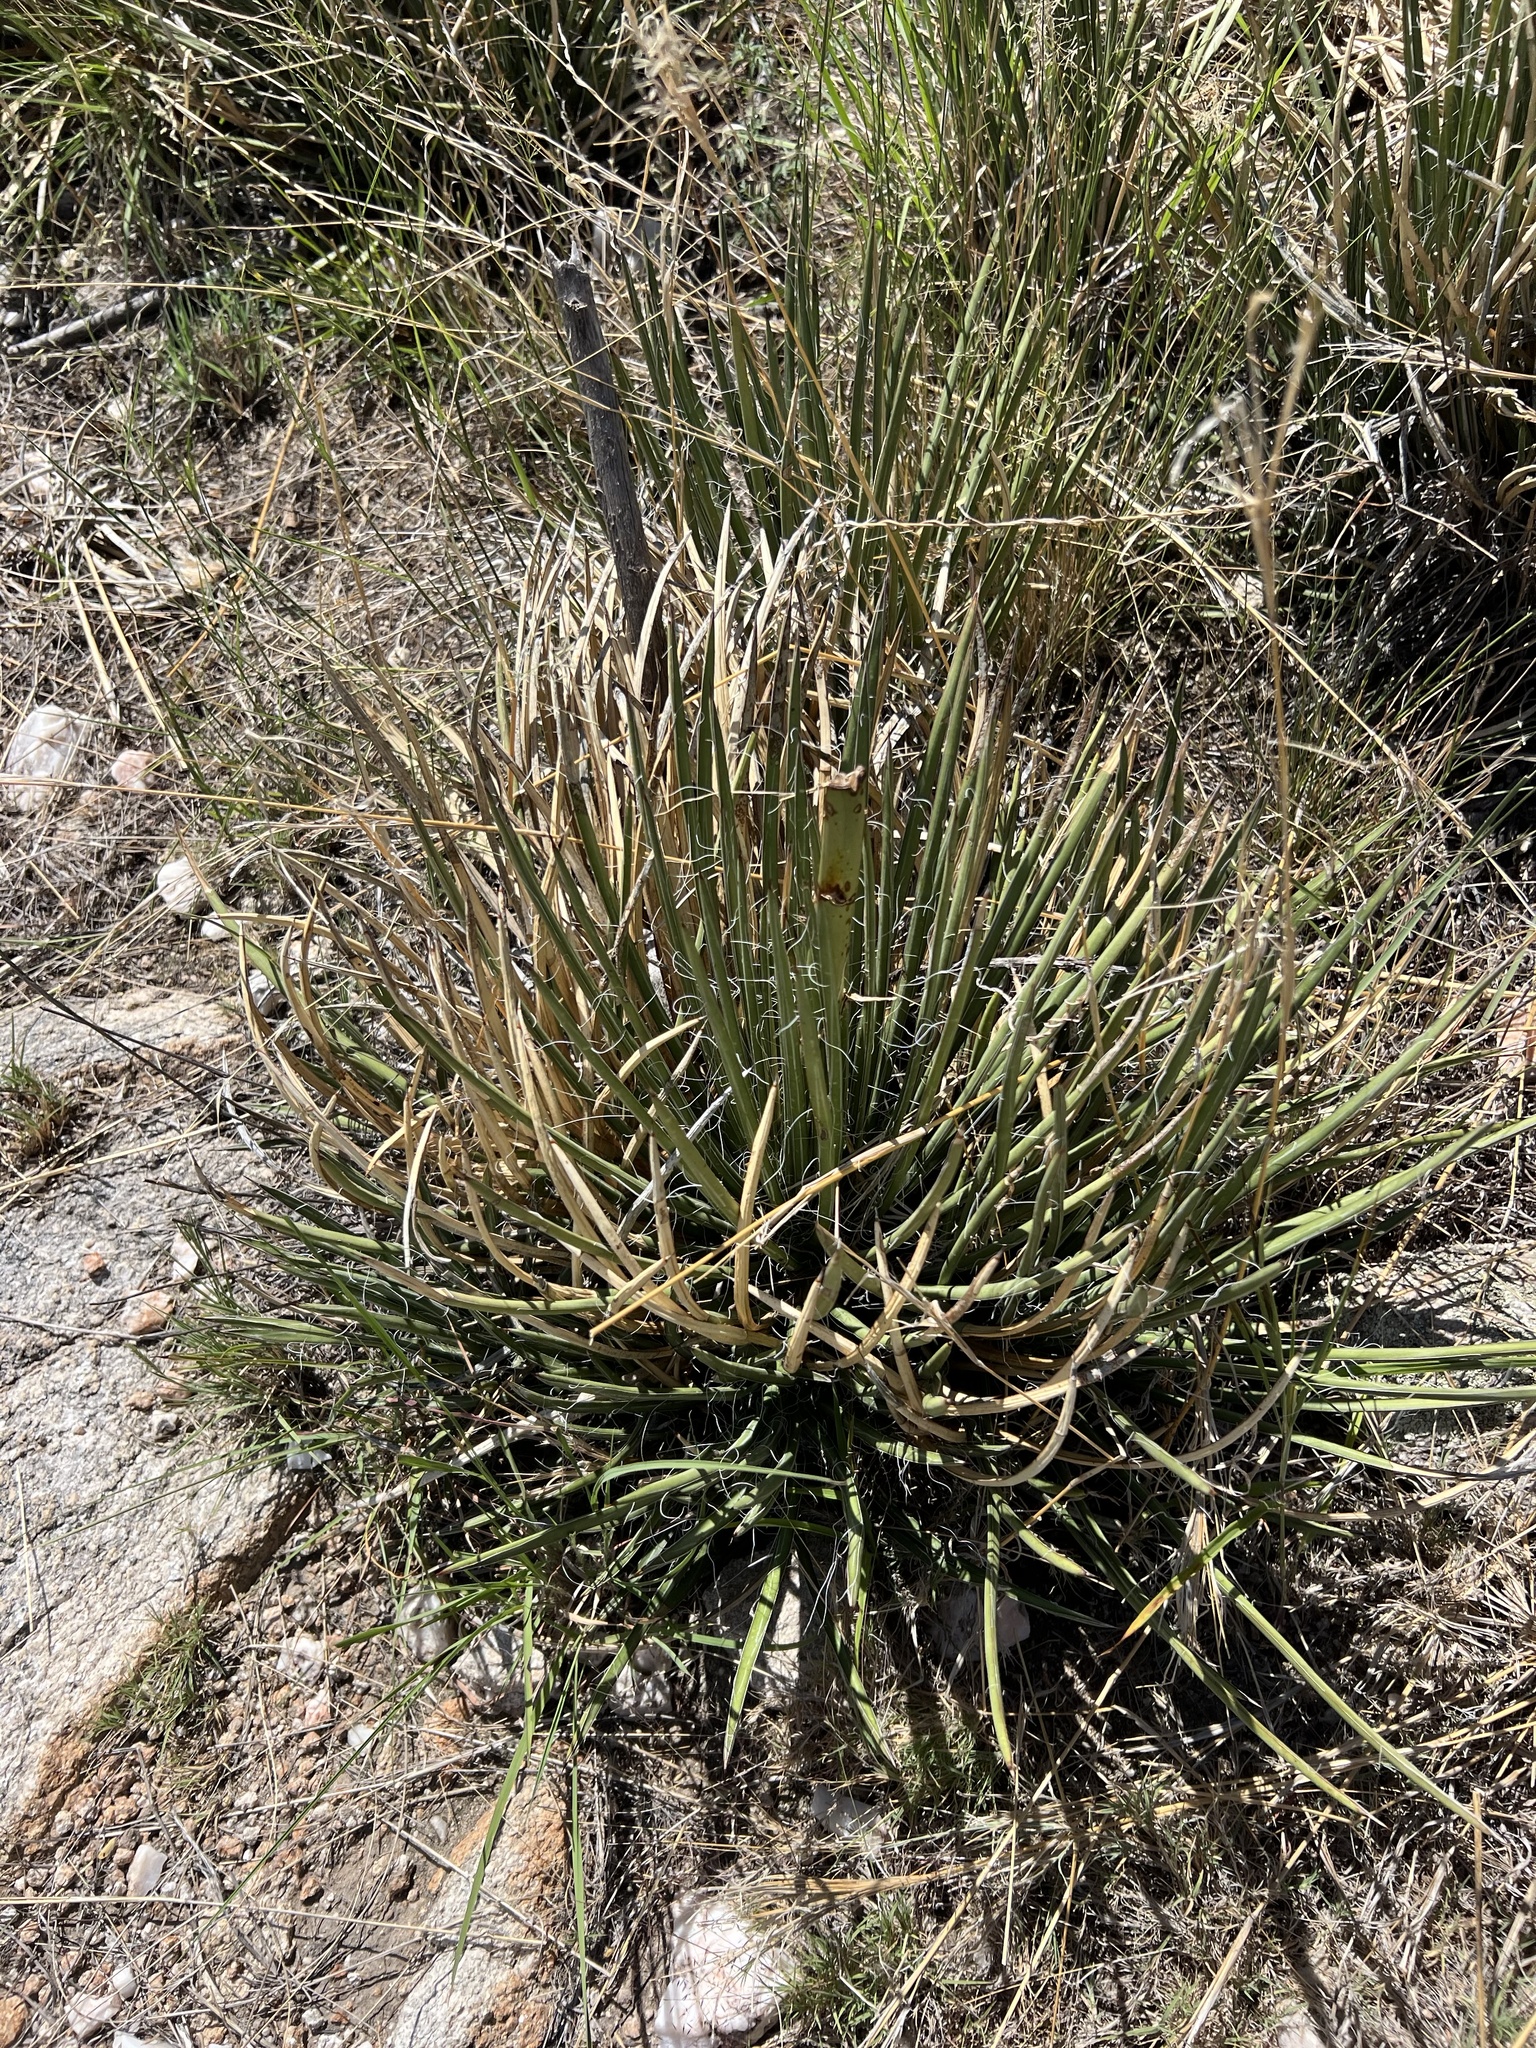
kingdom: Plantae
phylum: Tracheophyta
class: Liliopsida
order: Asparagales
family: Asparagaceae
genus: Agave
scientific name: Agave schottii
